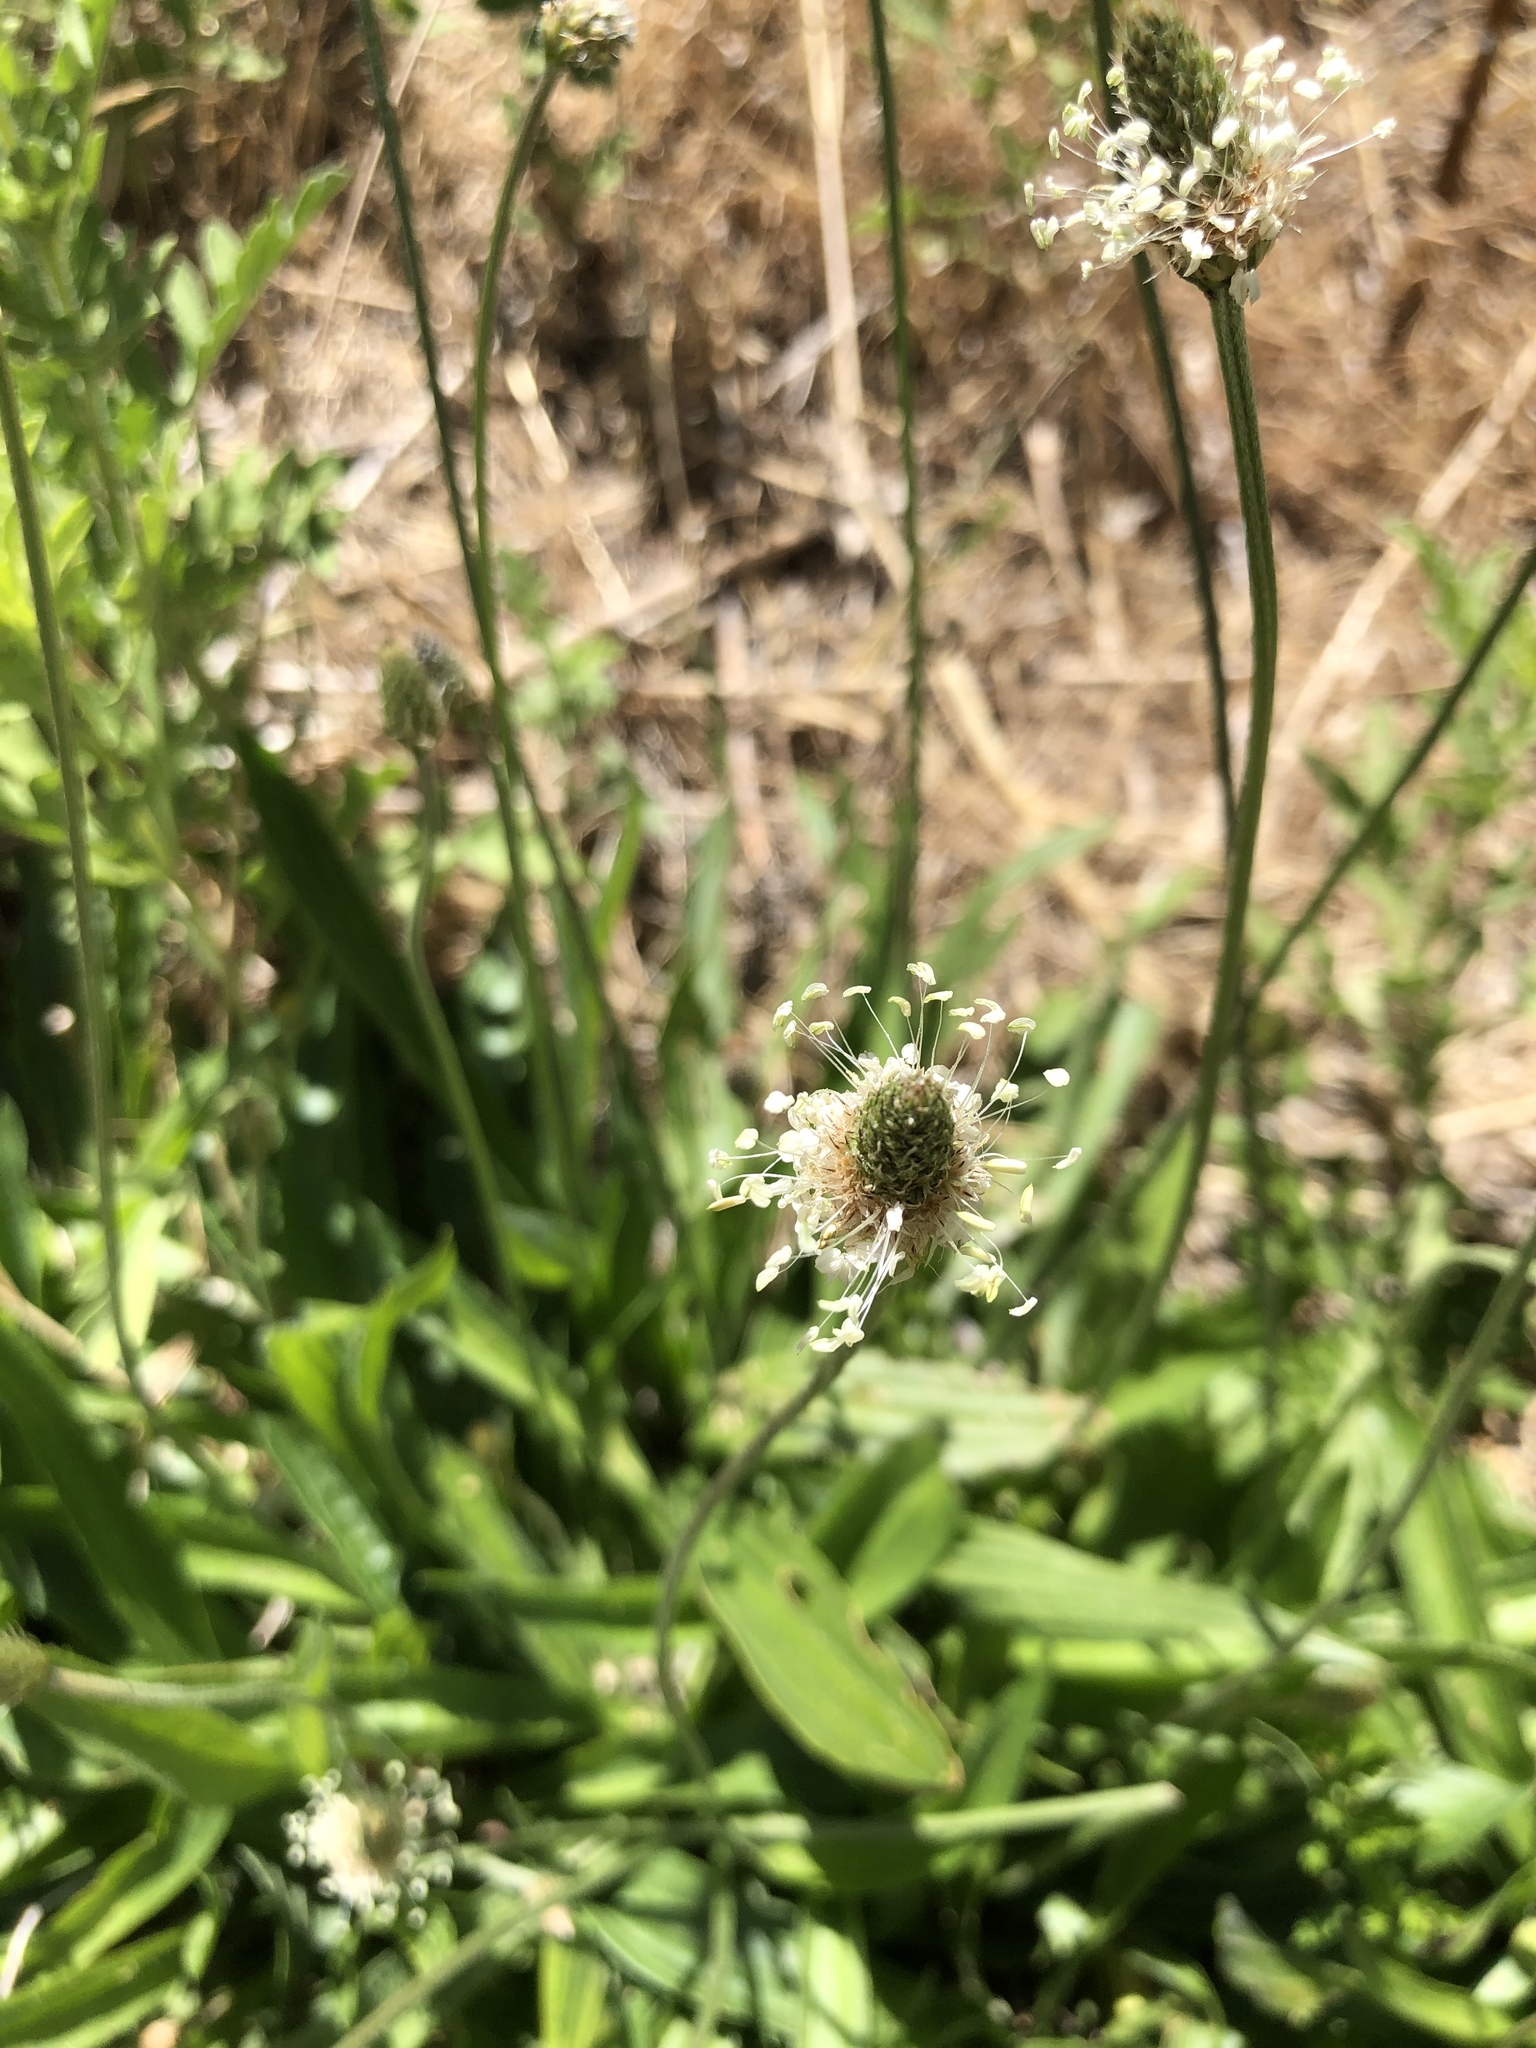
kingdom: Plantae
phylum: Tracheophyta
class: Magnoliopsida
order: Lamiales
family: Plantaginaceae
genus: Plantago
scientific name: Plantago lanceolata
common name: Ribwort plantain
